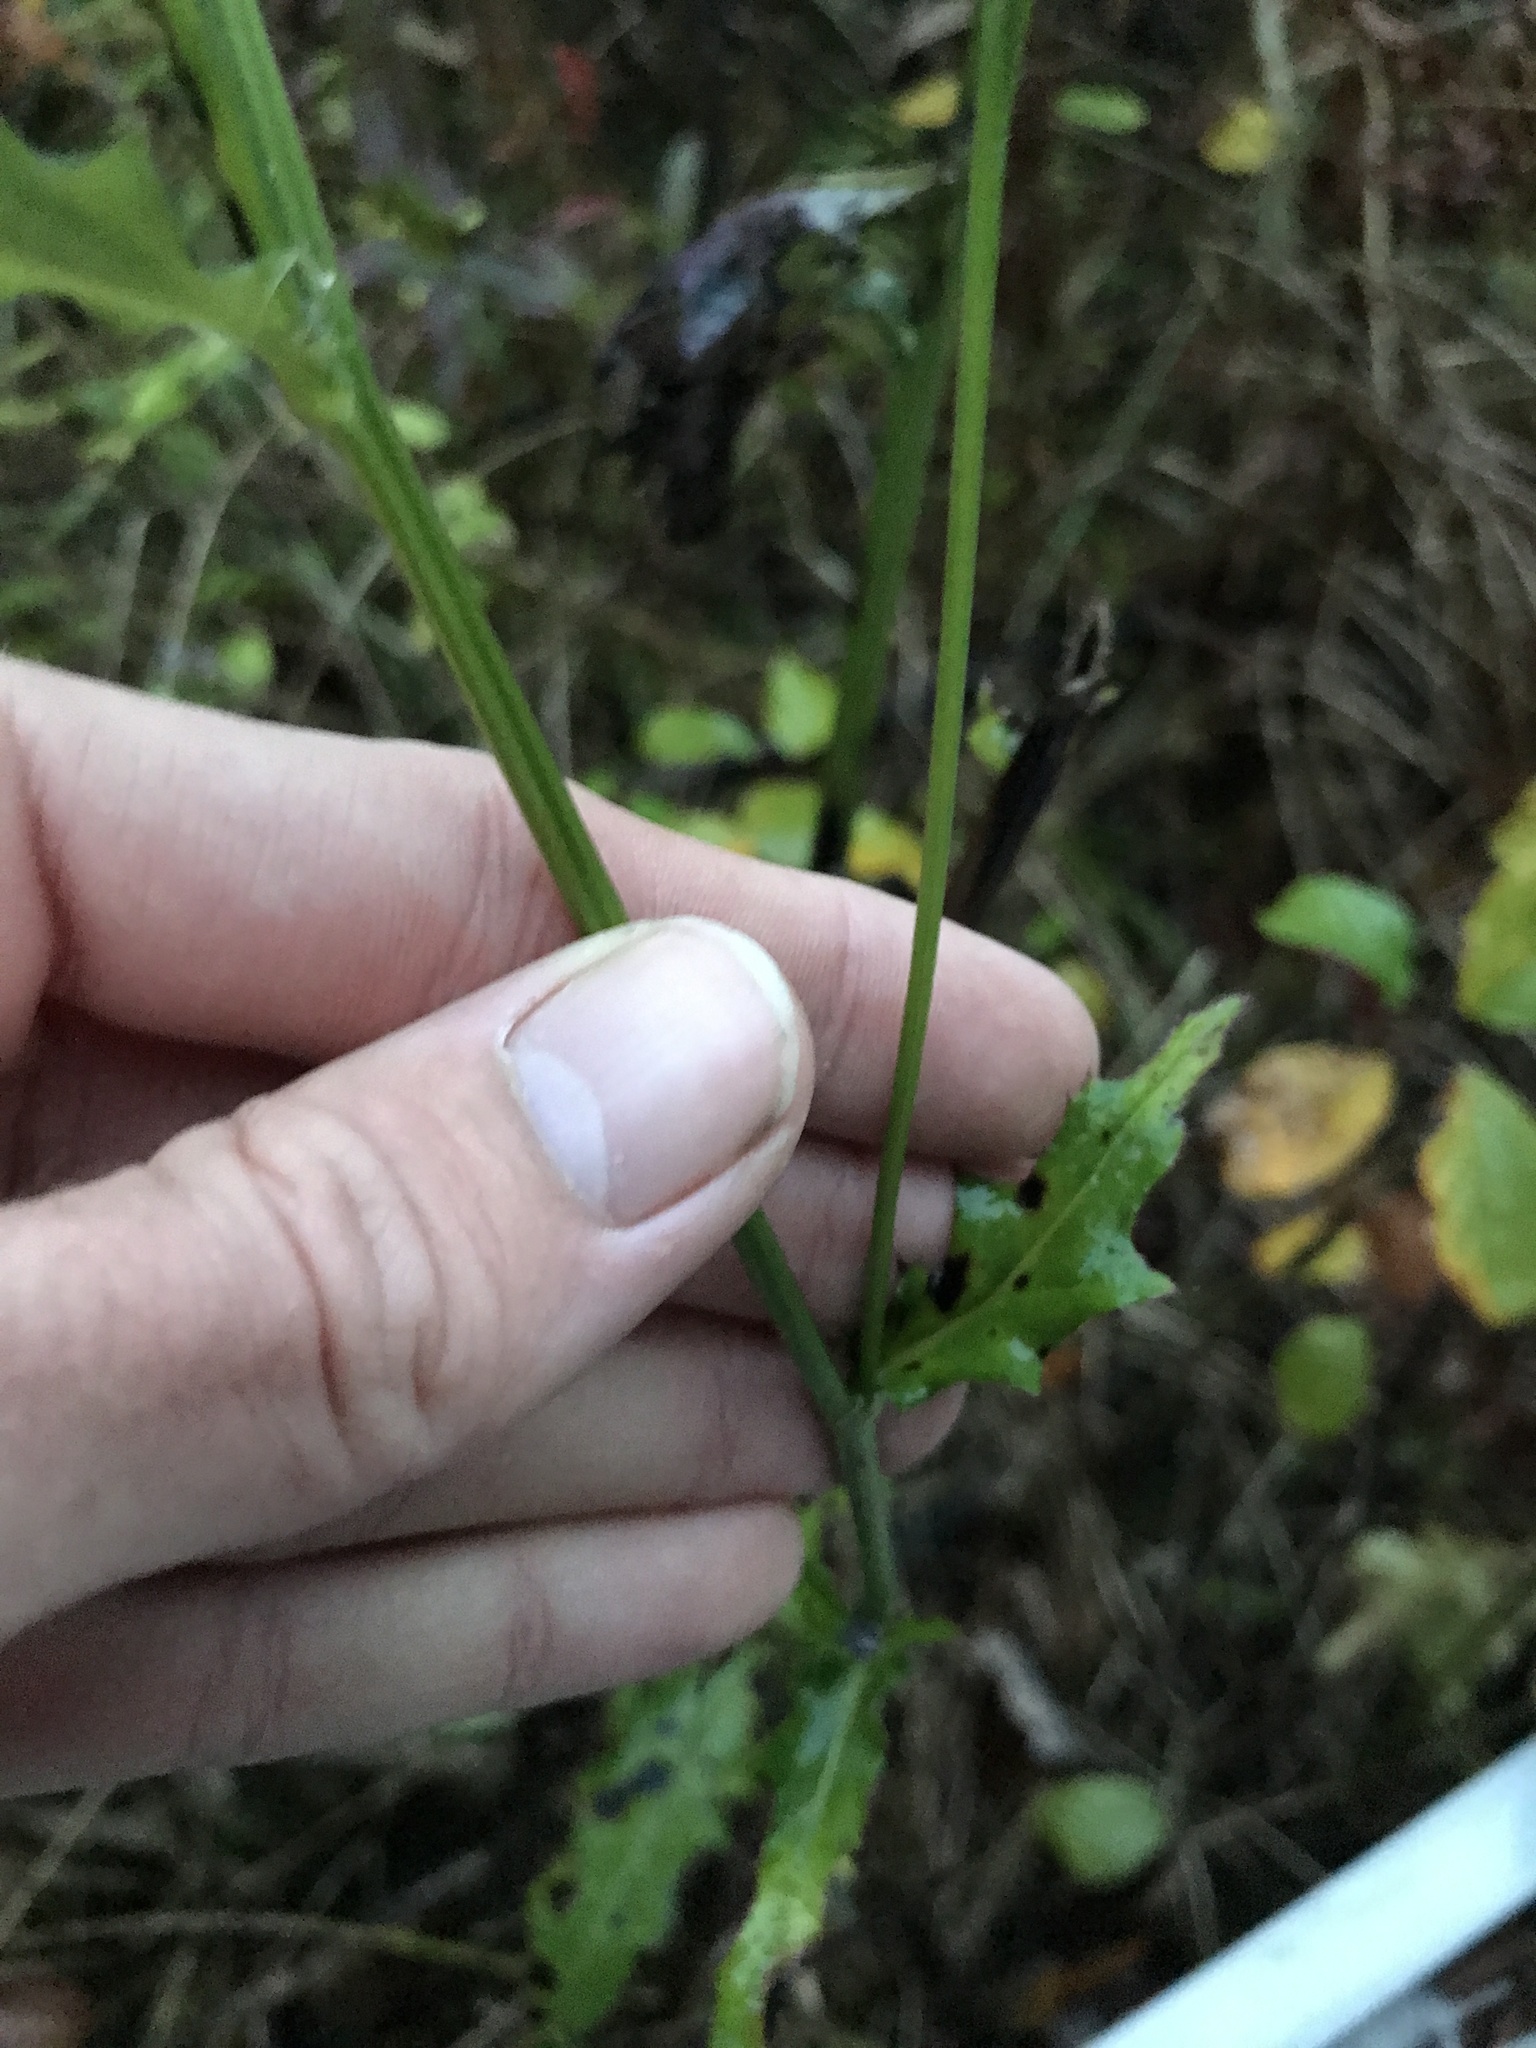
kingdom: Plantae
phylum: Tracheophyta
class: Magnoliopsida
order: Asterales
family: Asteraceae
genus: Cirsium
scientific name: Cirsium muticum
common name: Dunce-nettle
